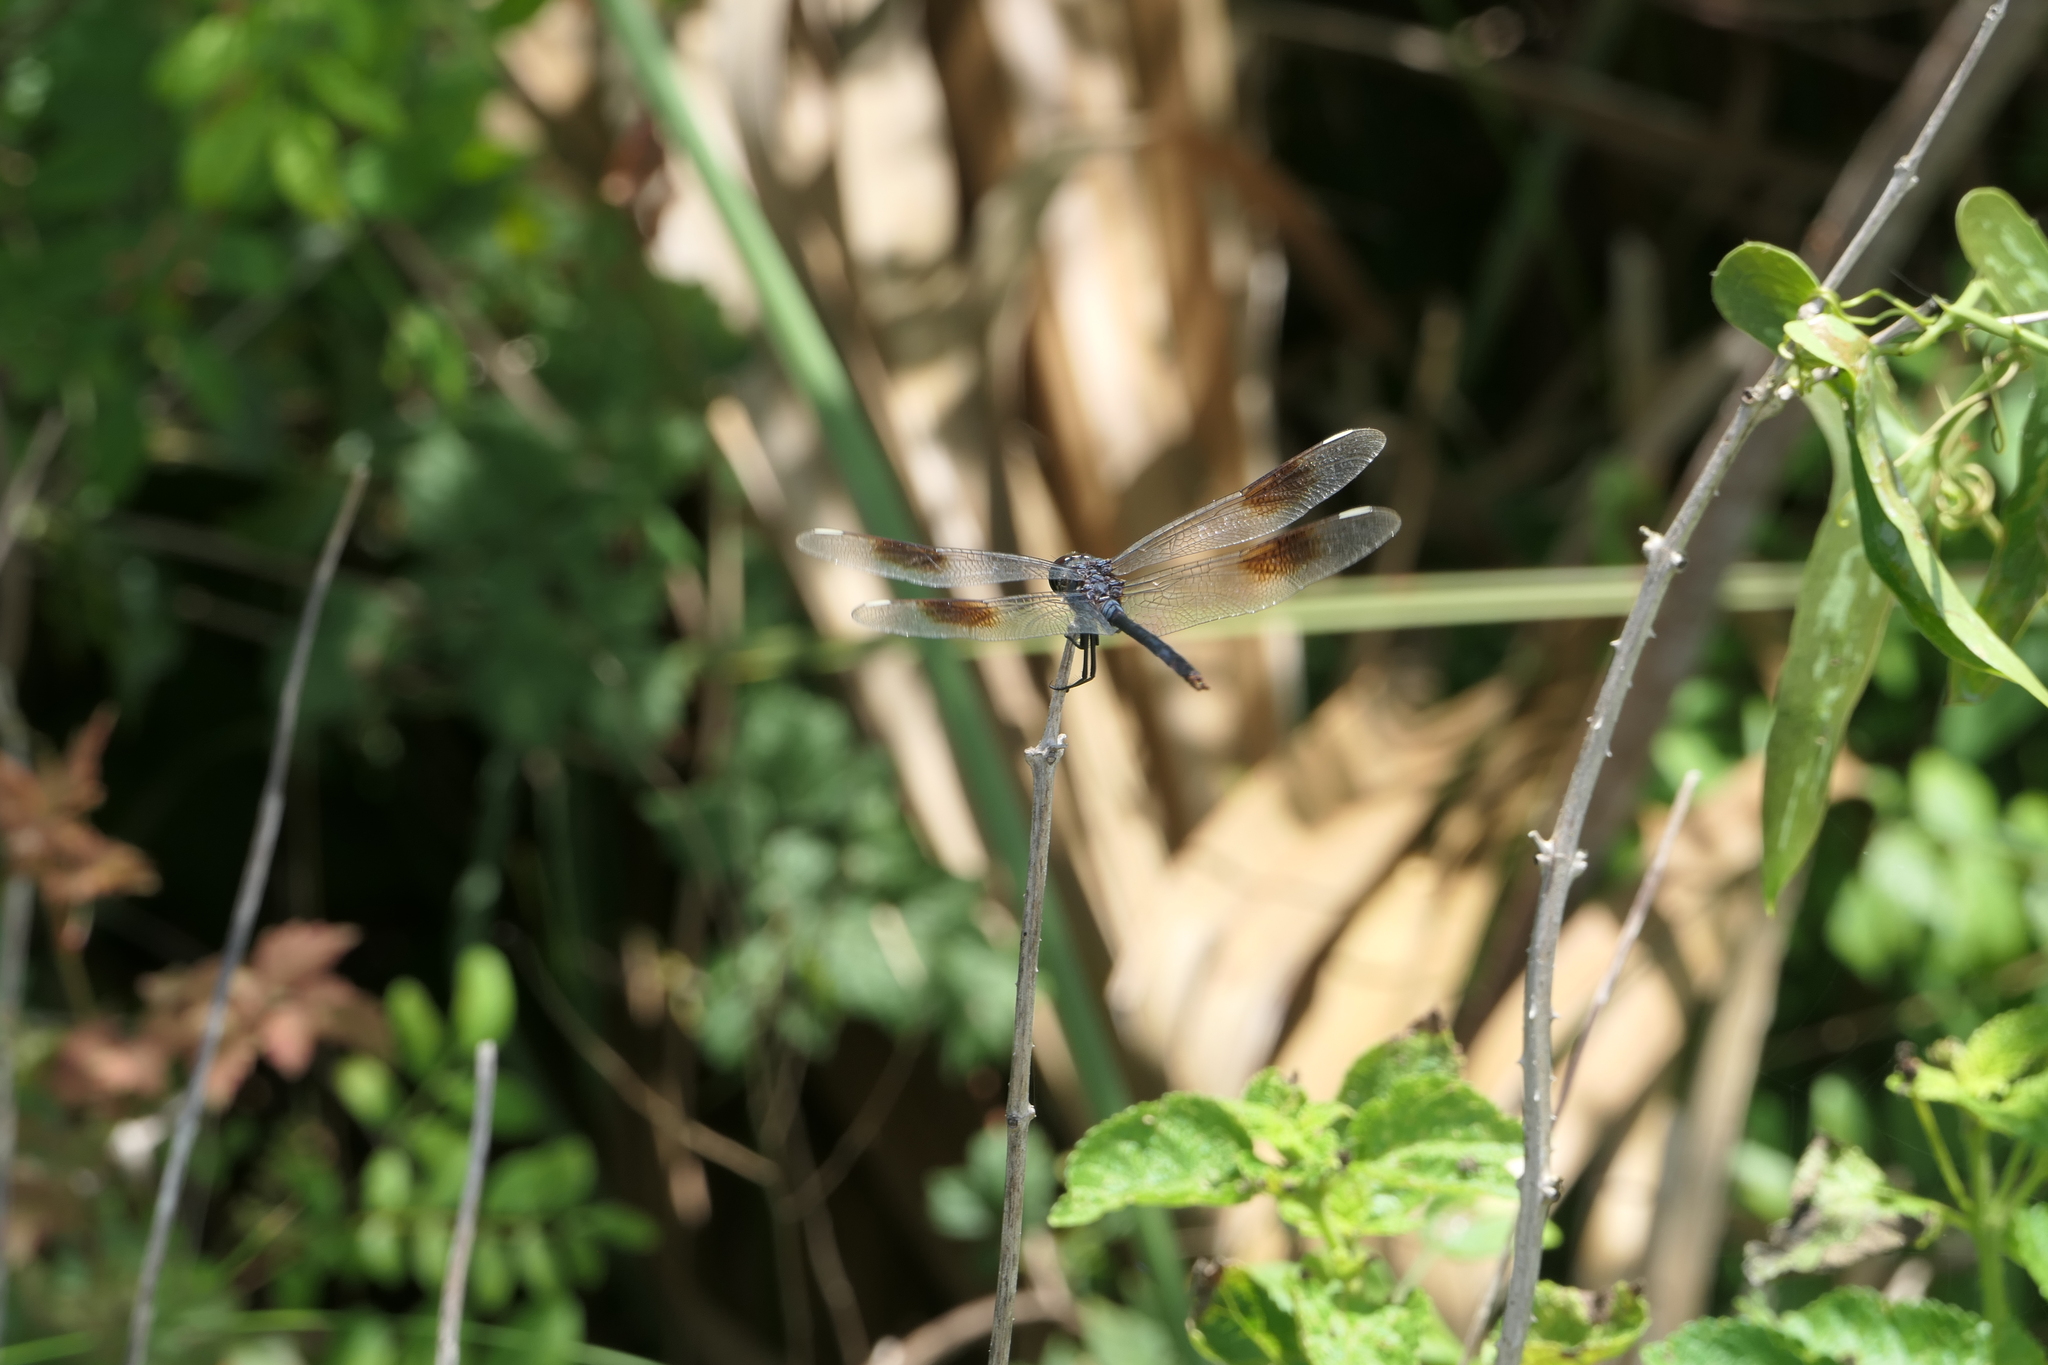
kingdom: Animalia
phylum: Arthropoda
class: Insecta
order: Odonata
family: Libellulidae
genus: Brachymesia
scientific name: Brachymesia gravida
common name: Four-spotted pennant
